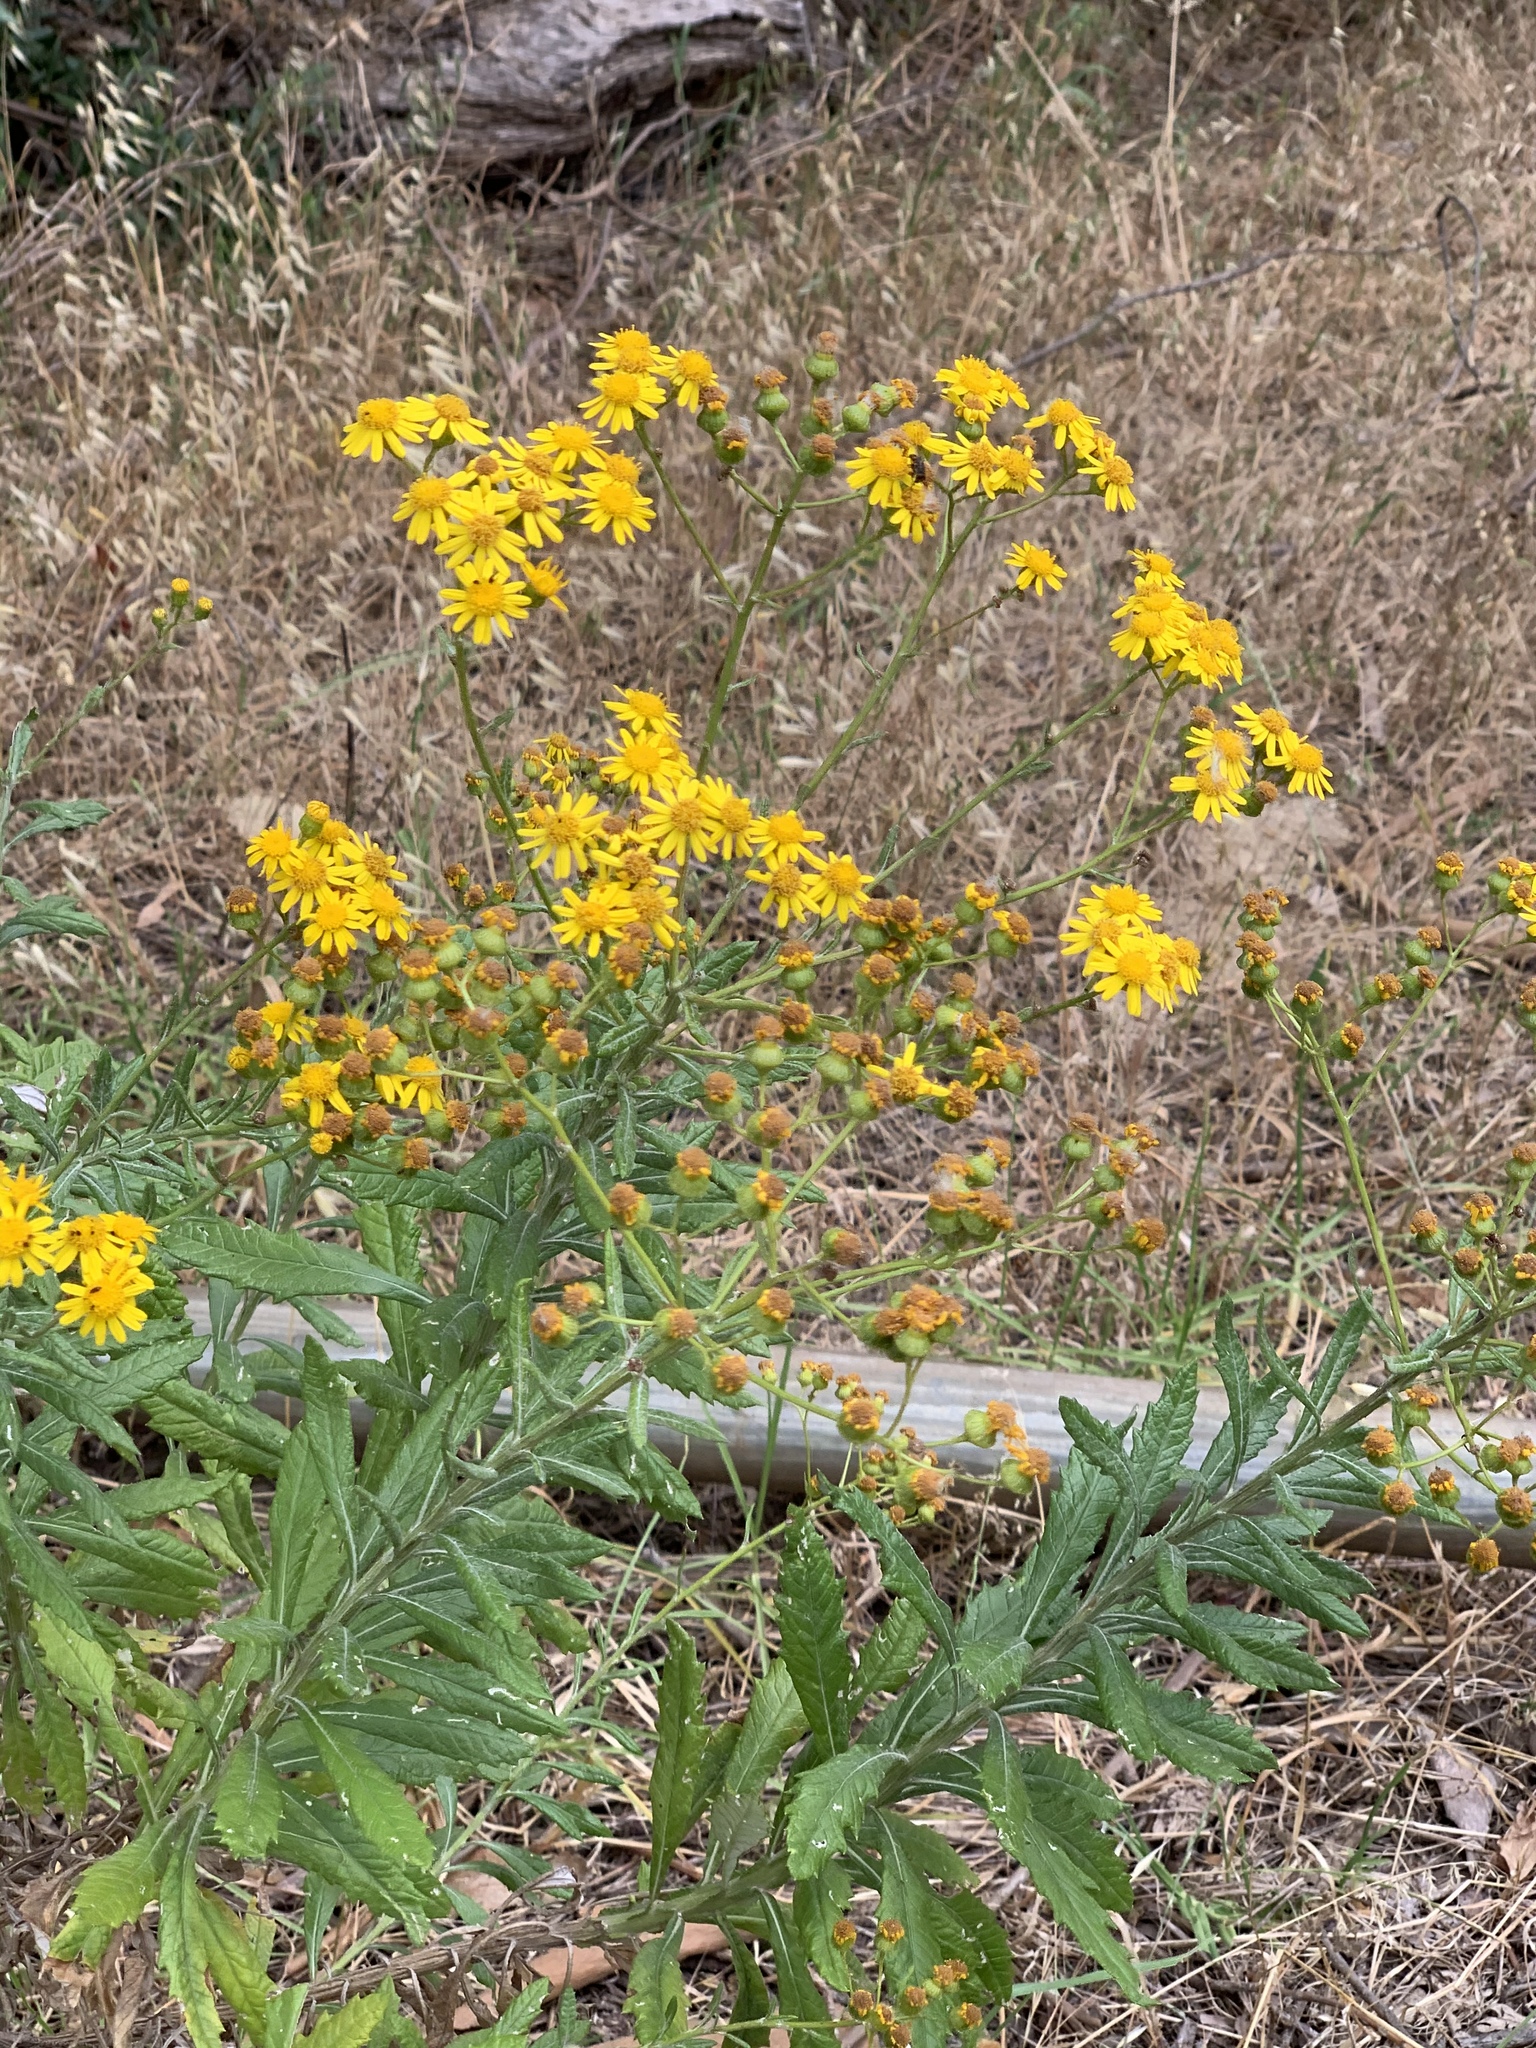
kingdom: Plantae
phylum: Tracheophyta
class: Magnoliopsida
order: Asterales
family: Asteraceae
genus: Senecio
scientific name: Senecio pterophorus
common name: Shoddy ragwort
